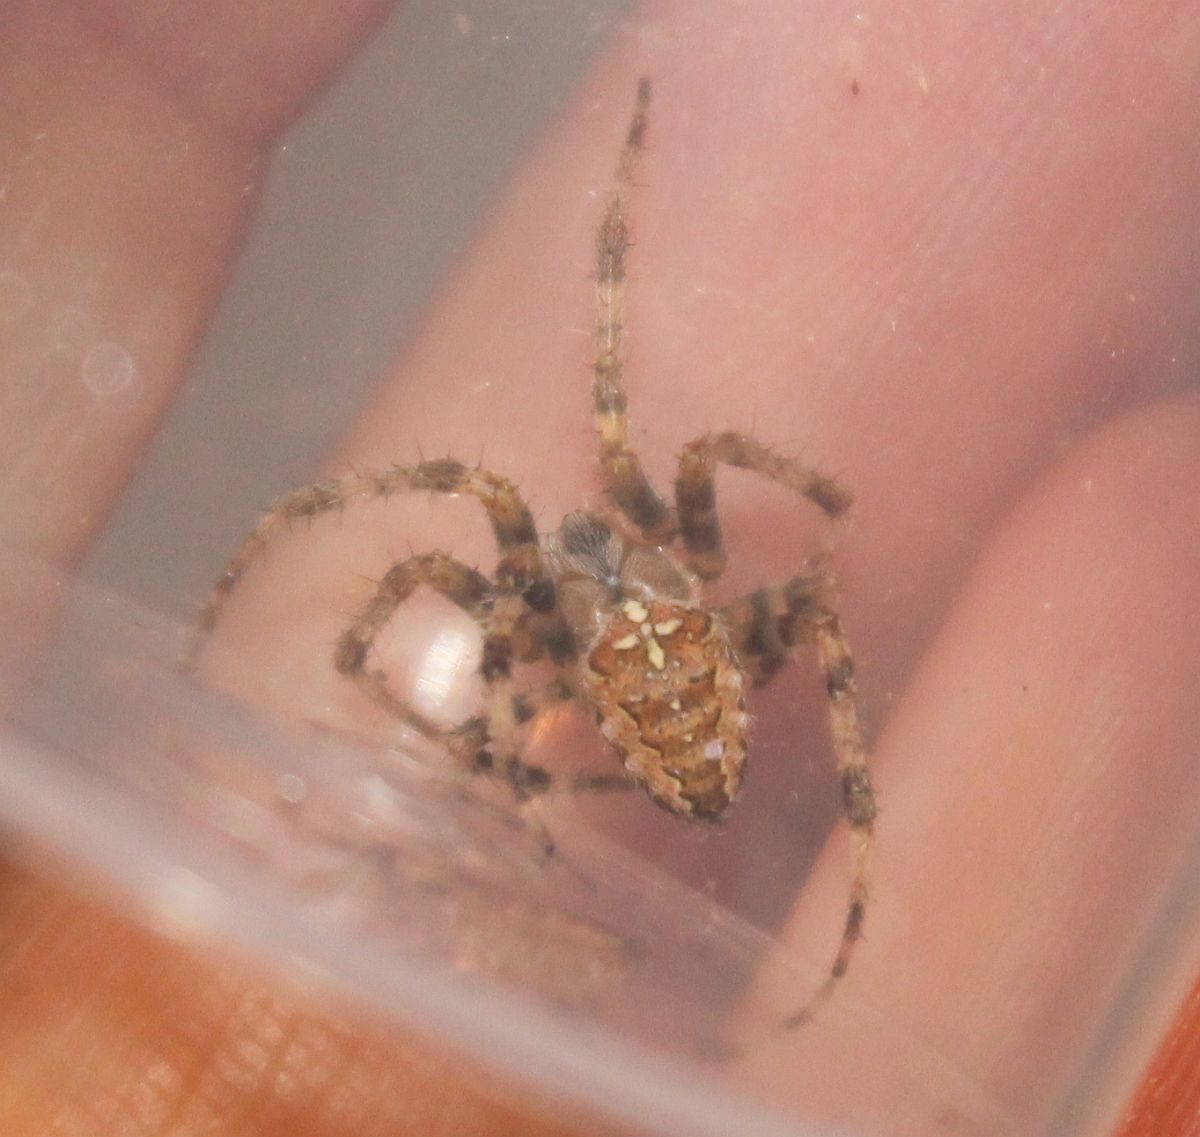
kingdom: Animalia
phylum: Arthropoda
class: Arachnida
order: Araneae
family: Araneidae
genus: Araneus
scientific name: Araneus diadematus
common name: Cross orbweaver
